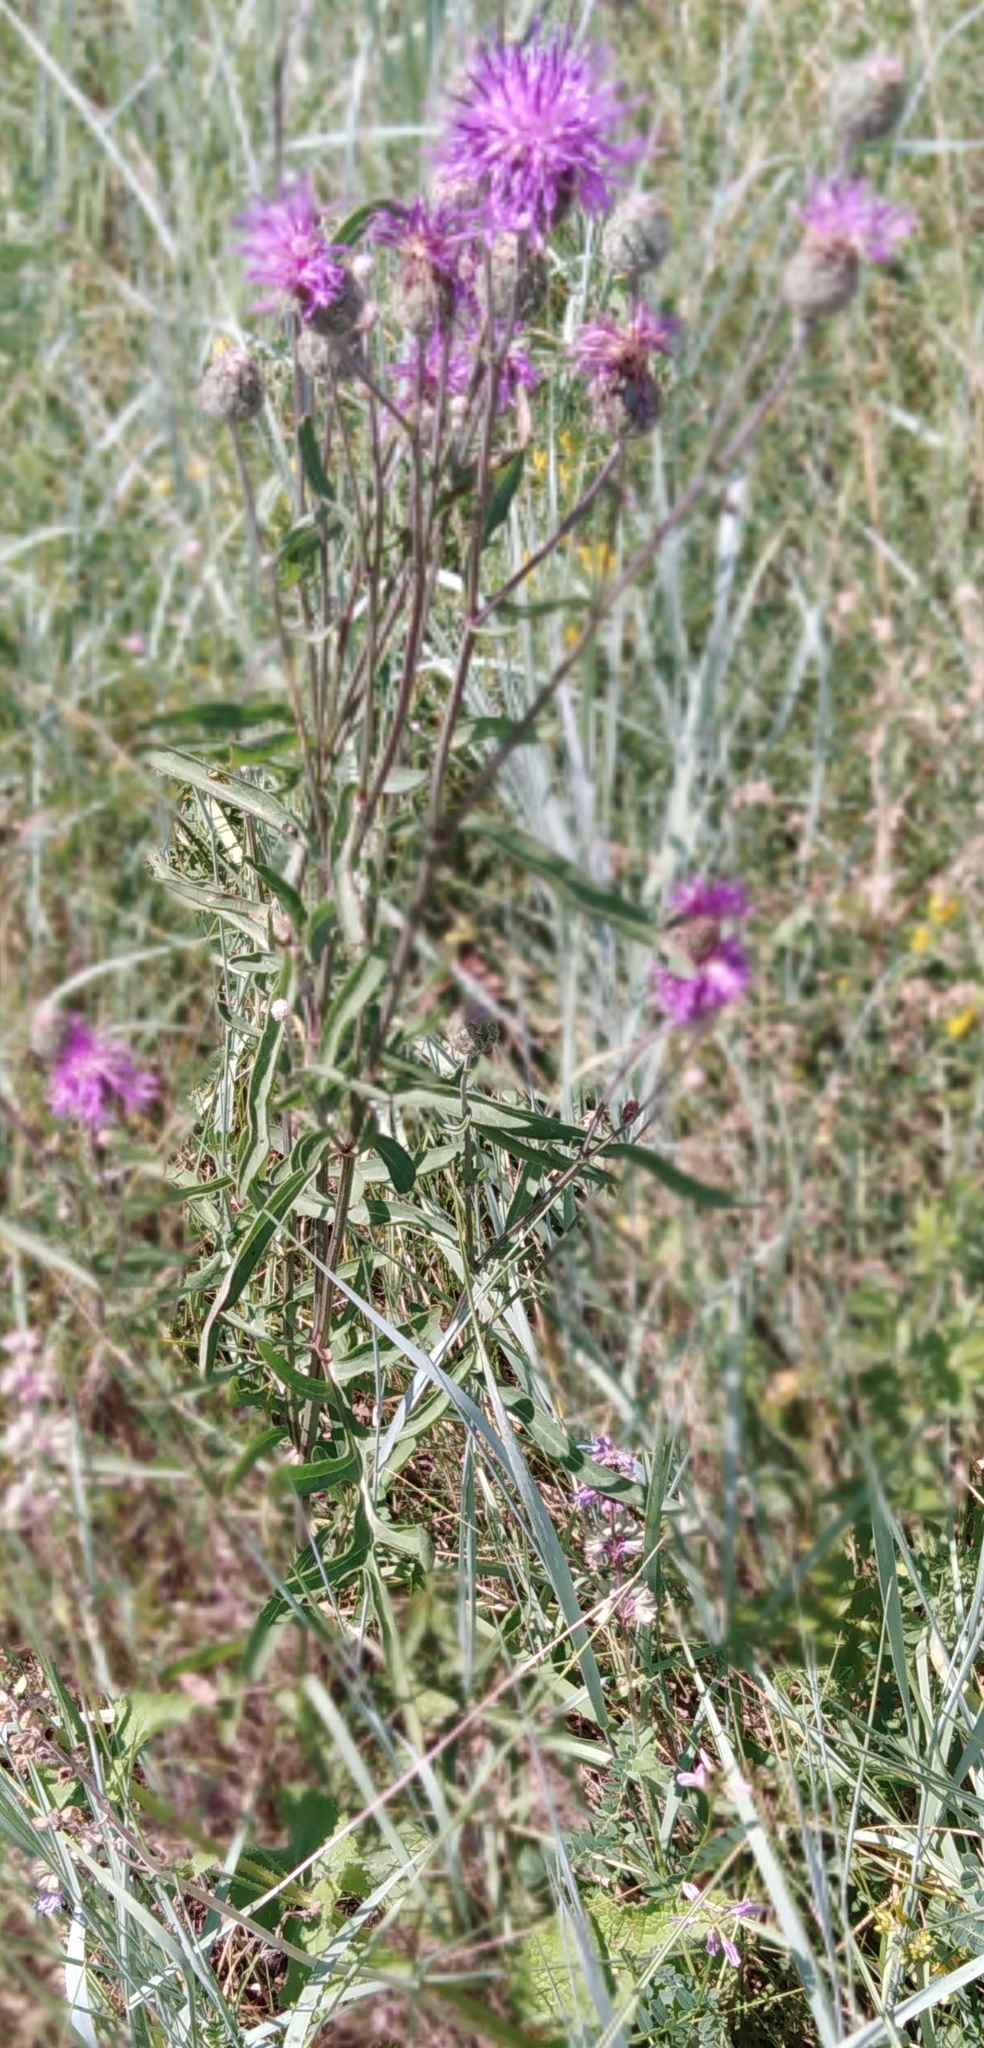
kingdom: Plantae
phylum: Tracheophyta
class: Magnoliopsida
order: Asterales
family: Asteraceae
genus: Centaurea
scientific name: Centaurea scabiosa
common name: Greater knapweed
